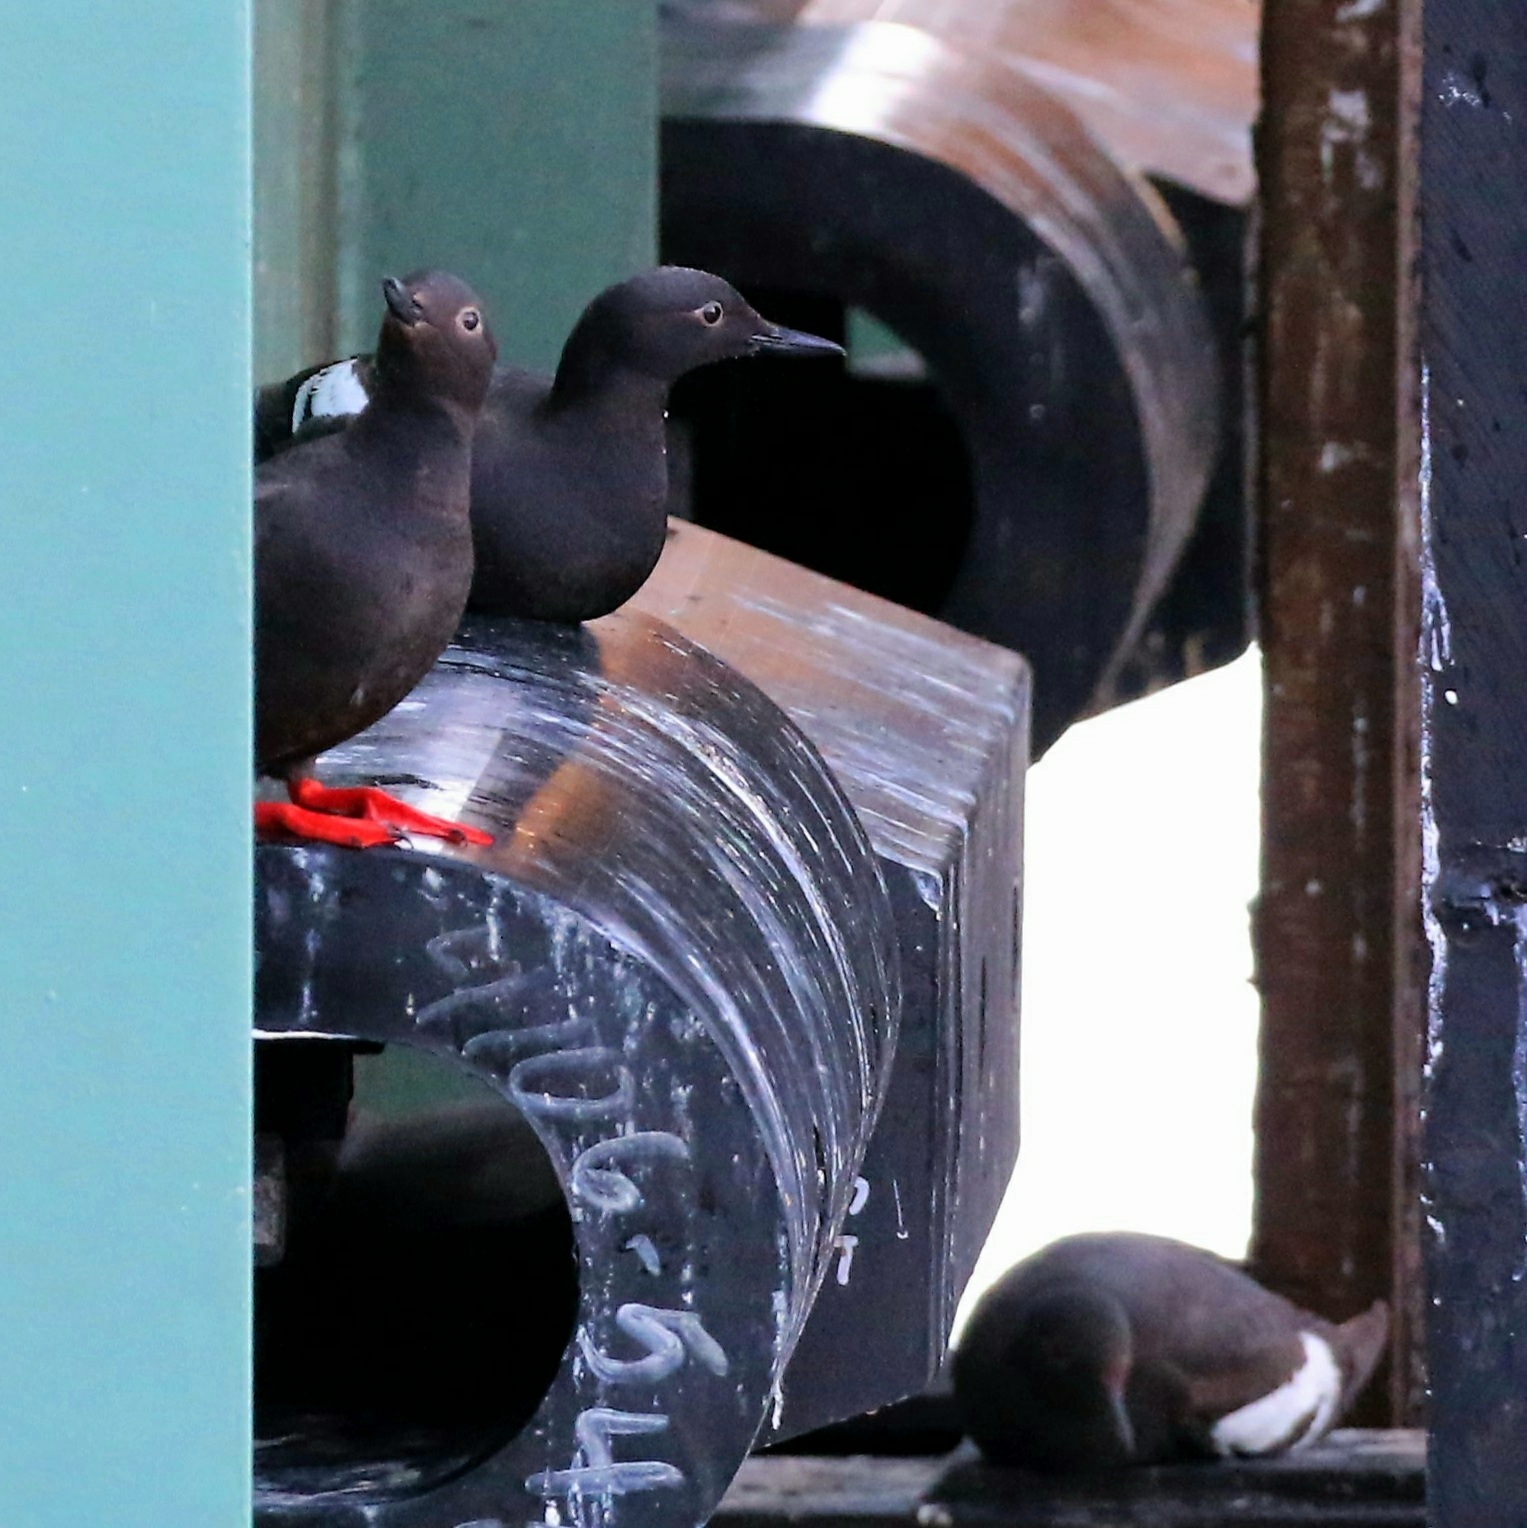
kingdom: Animalia
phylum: Chordata
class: Aves
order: Charadriiformes
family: Alcidae
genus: Cepphus
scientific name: Cepphus columba
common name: Pigeon guillemot
